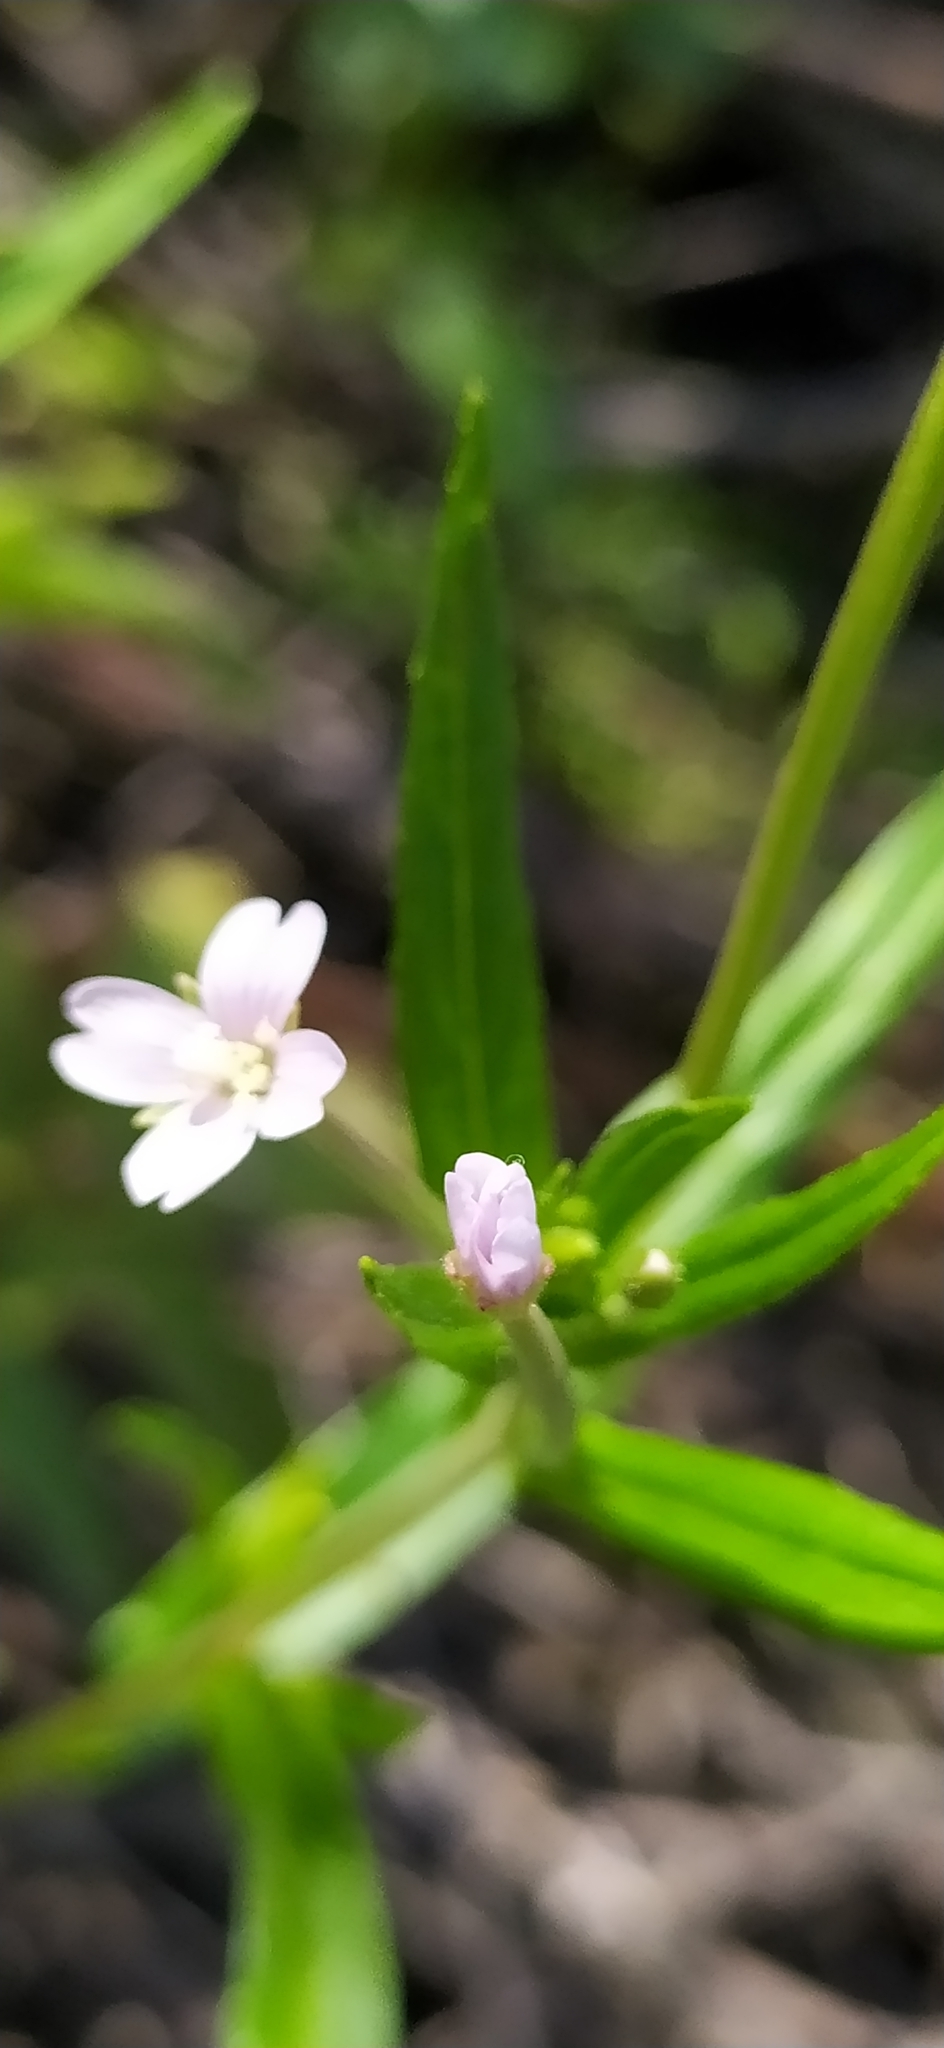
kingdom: Plantae
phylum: Tracheophyta
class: Magnoliopsida
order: Myrtales
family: Onagraceae
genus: Epilobium
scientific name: Epilobium palustre
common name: Marsh willowherb
